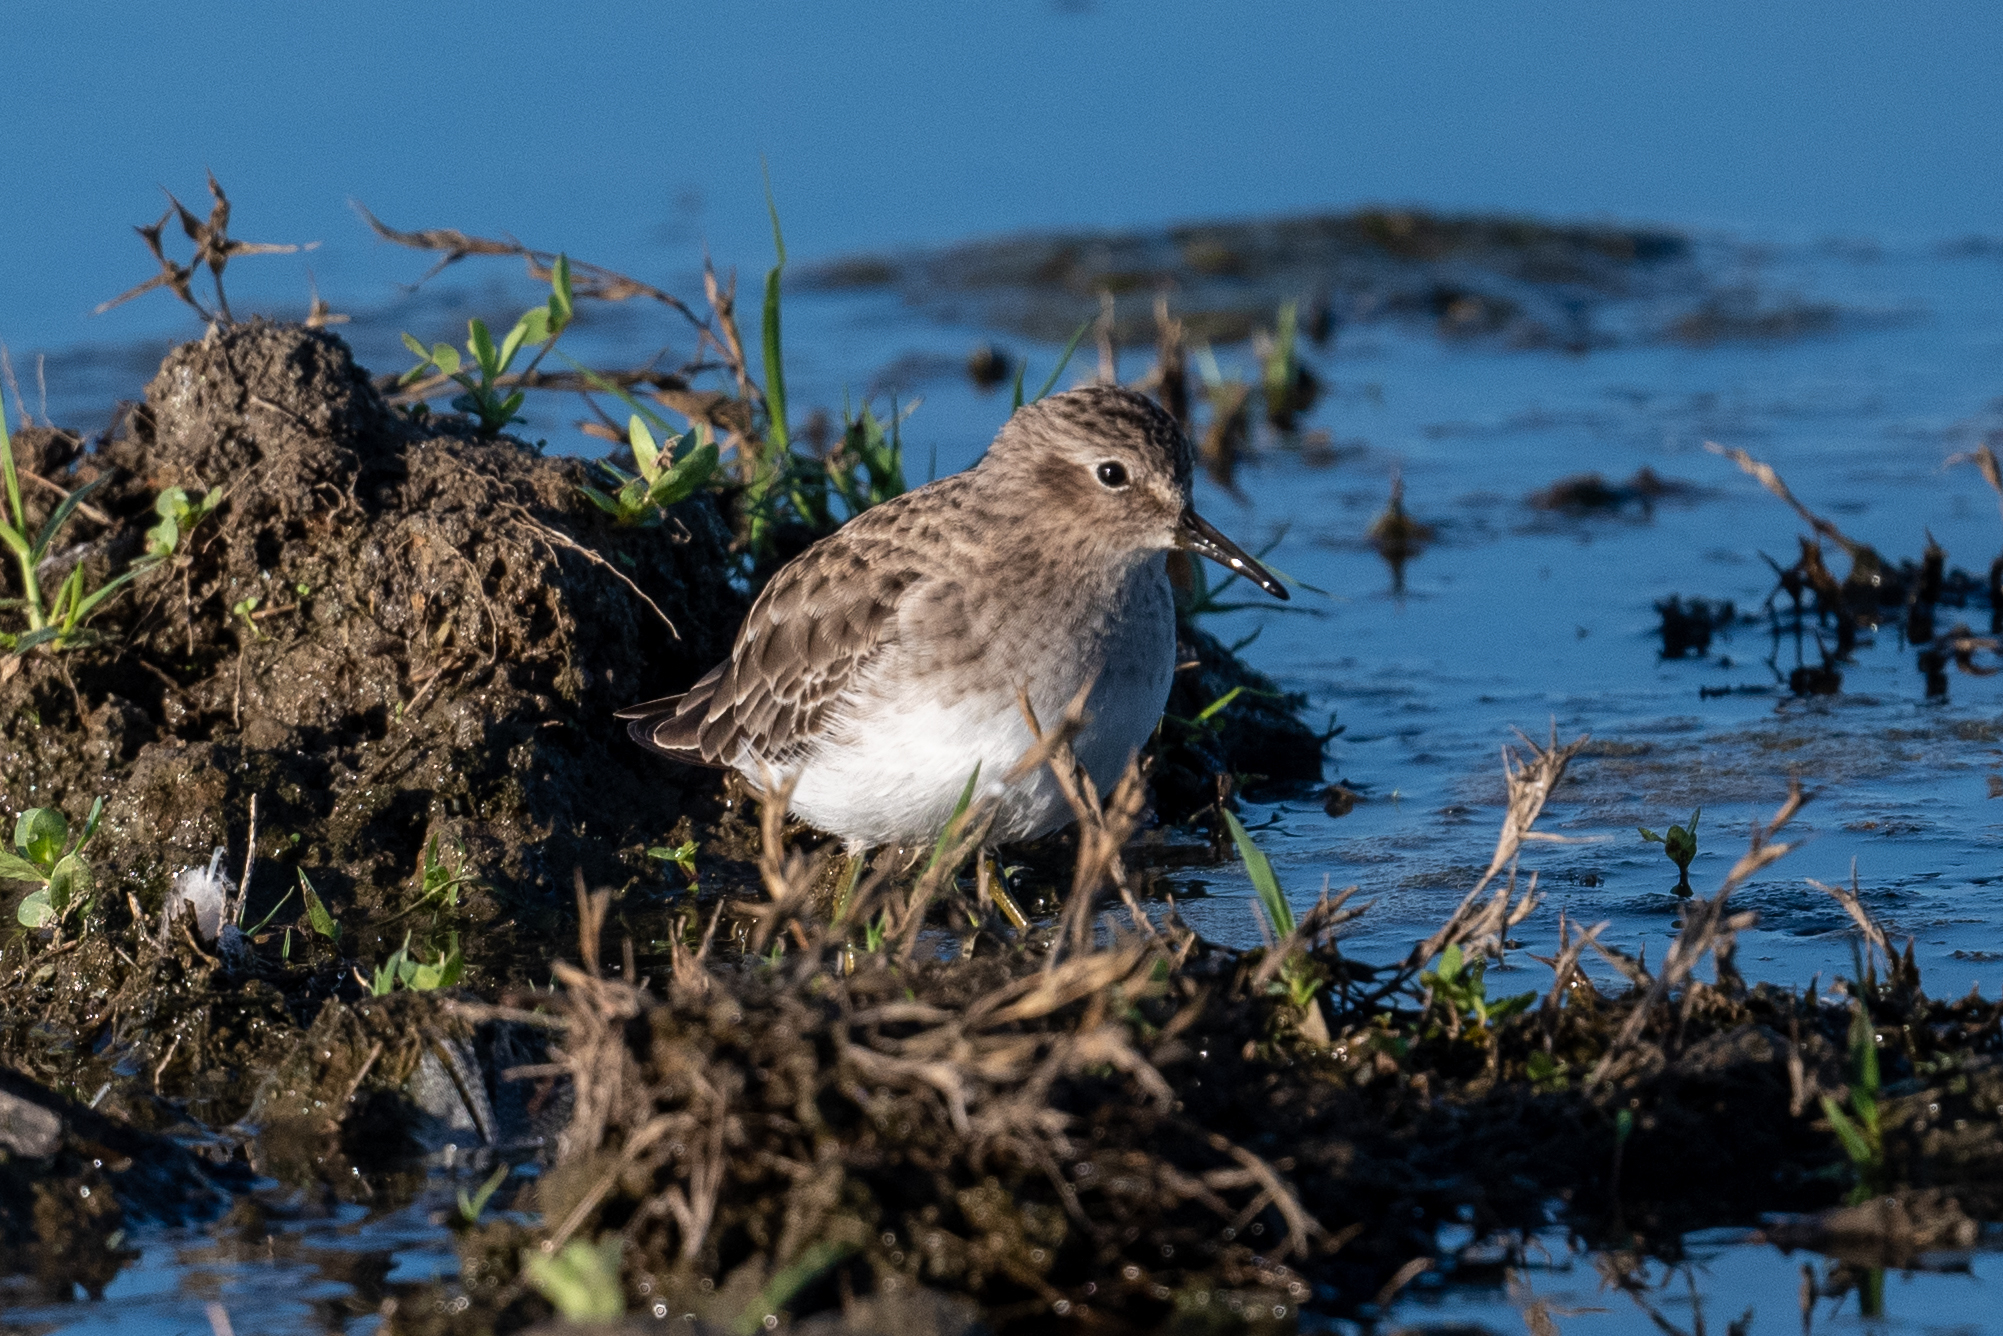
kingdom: Animalia
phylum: Chordata
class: Aves
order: Charadriiformes
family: Scolopacidae
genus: Calidris
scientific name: Calidris minutilla
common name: Least sandpiper
